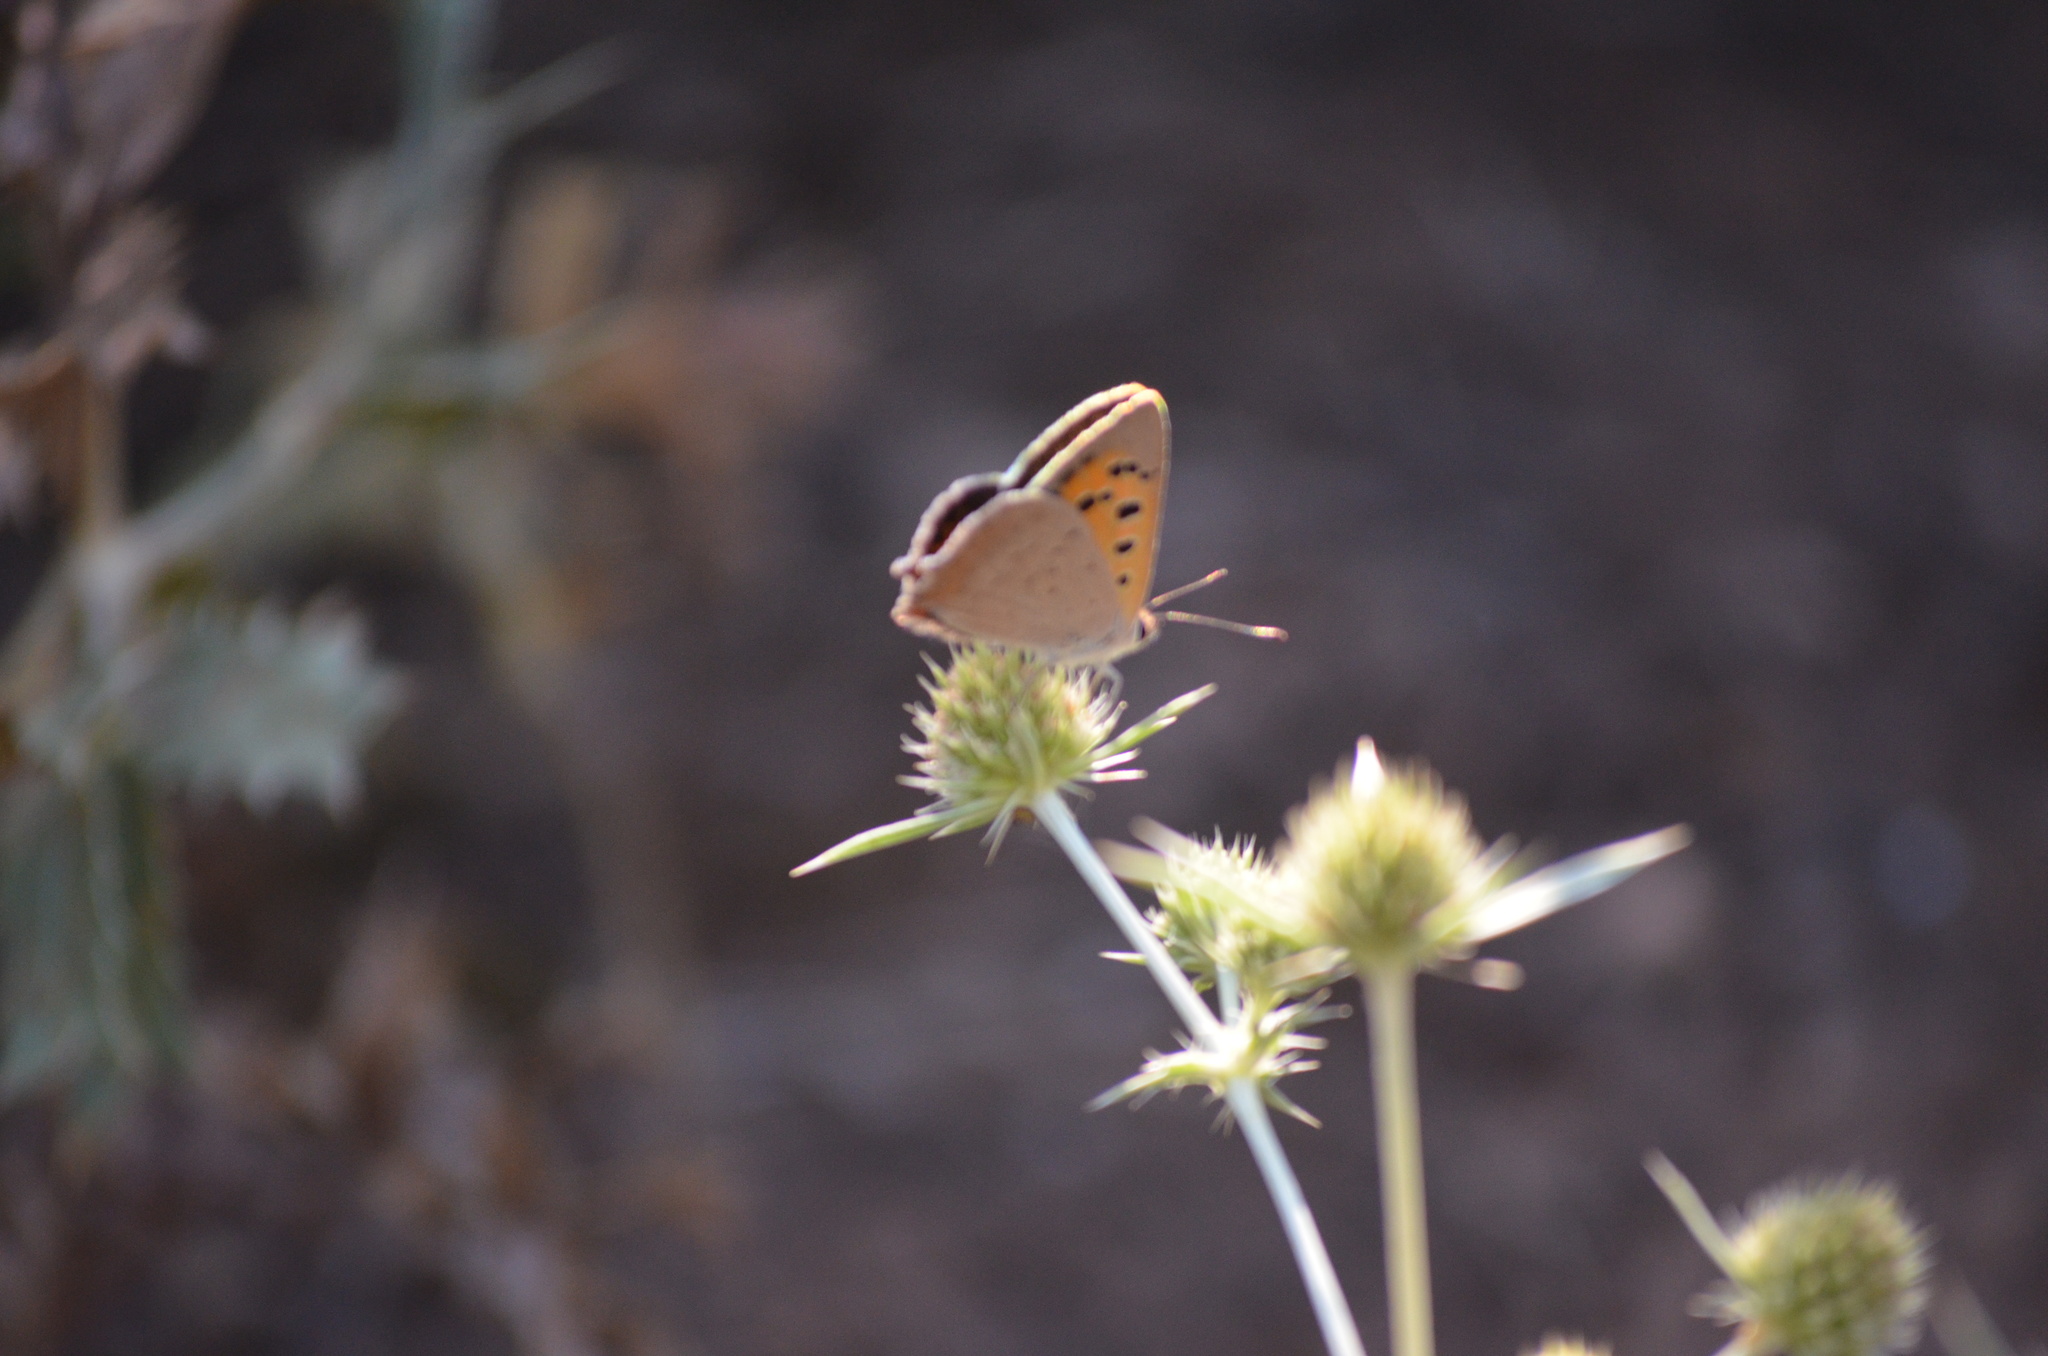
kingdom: Animalia
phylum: Arthropoda
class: Insecta
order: Lepidoptera
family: Lycaenidae
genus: Lycaena
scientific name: Lycaena phlaeas
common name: Small copper
